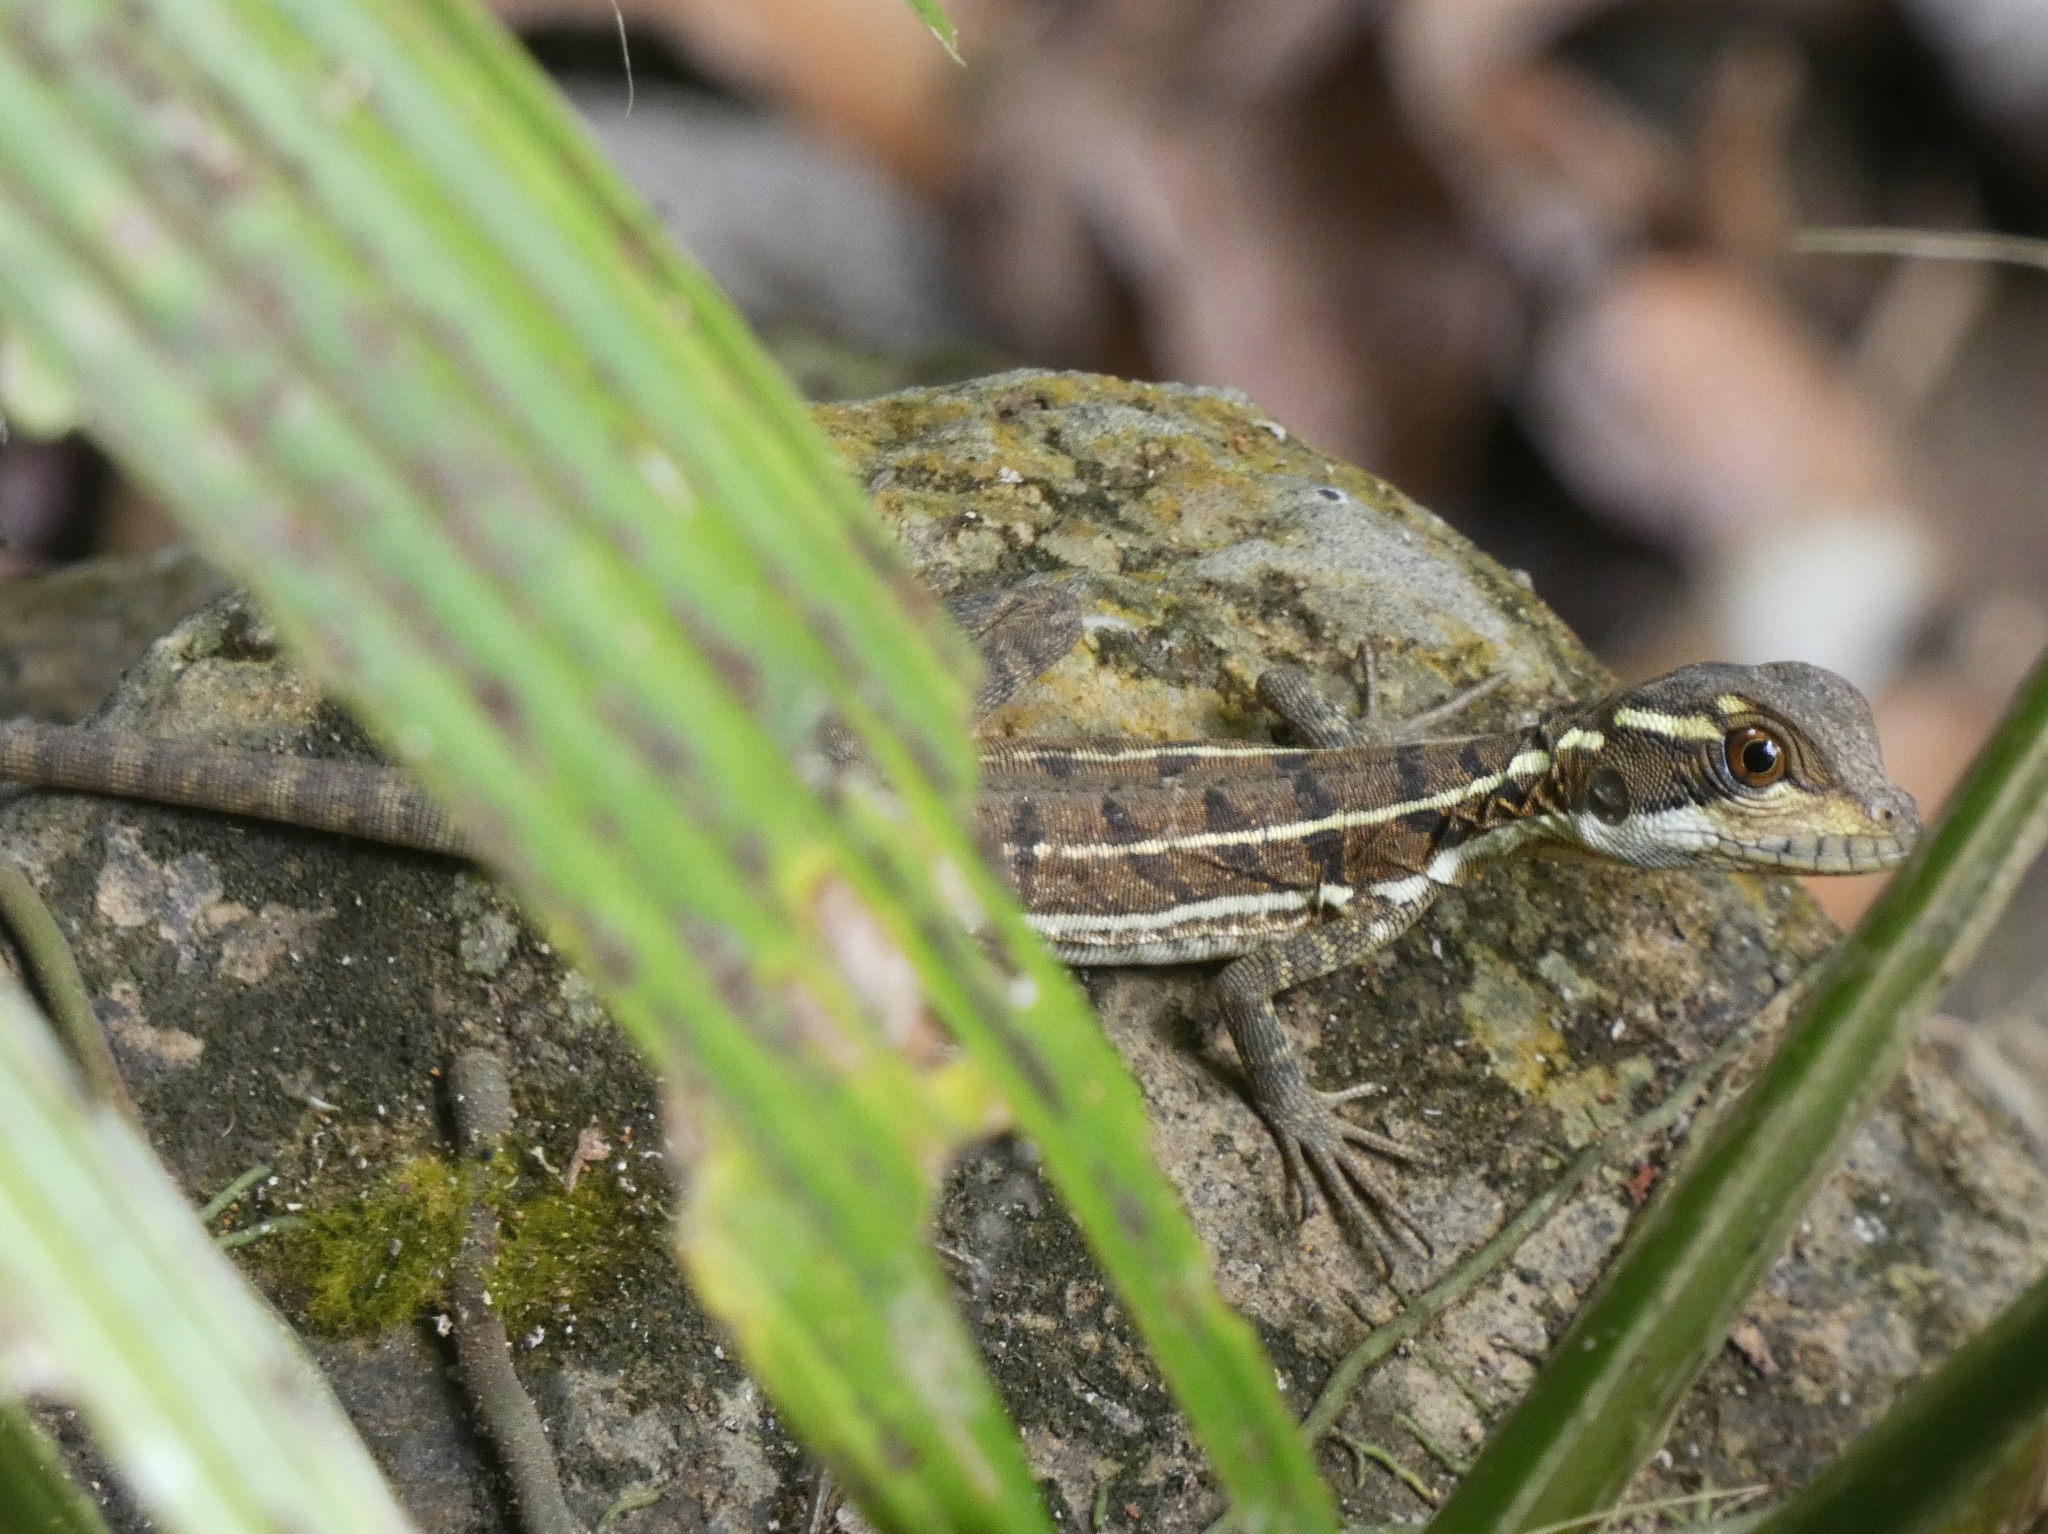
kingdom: Animalia
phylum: Chordata
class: Squamata
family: Corytophanidae
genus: Basiliscus
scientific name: Basiliscus basiliscus
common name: Common basilisk
